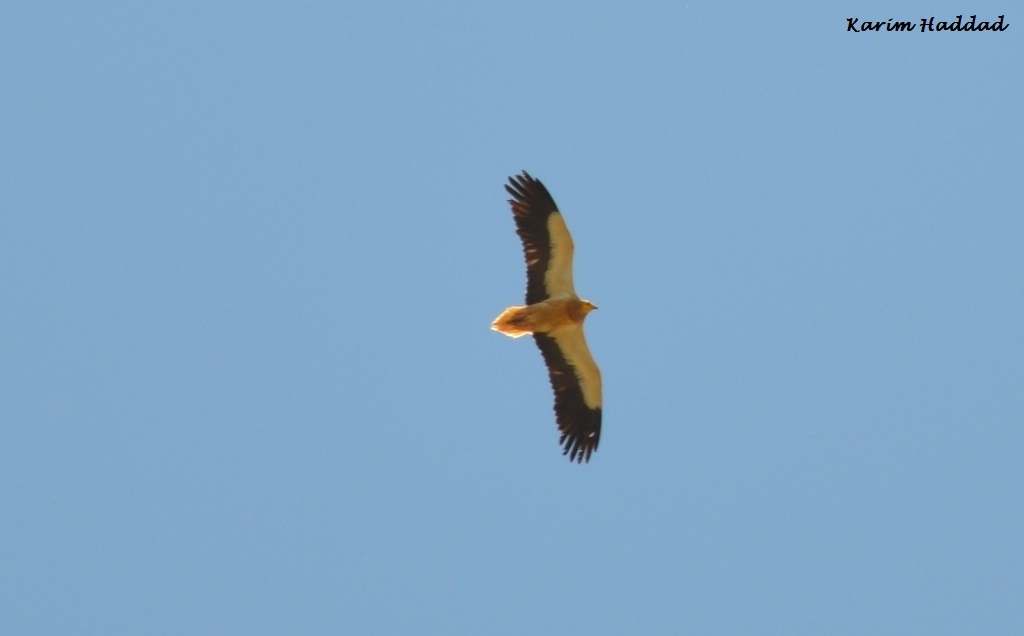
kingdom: Animalia
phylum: Chordata
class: Aves
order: Accipitriformes
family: Accipitridae
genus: Neophron
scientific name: Neophron percnopterus
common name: Egyptian vulture
